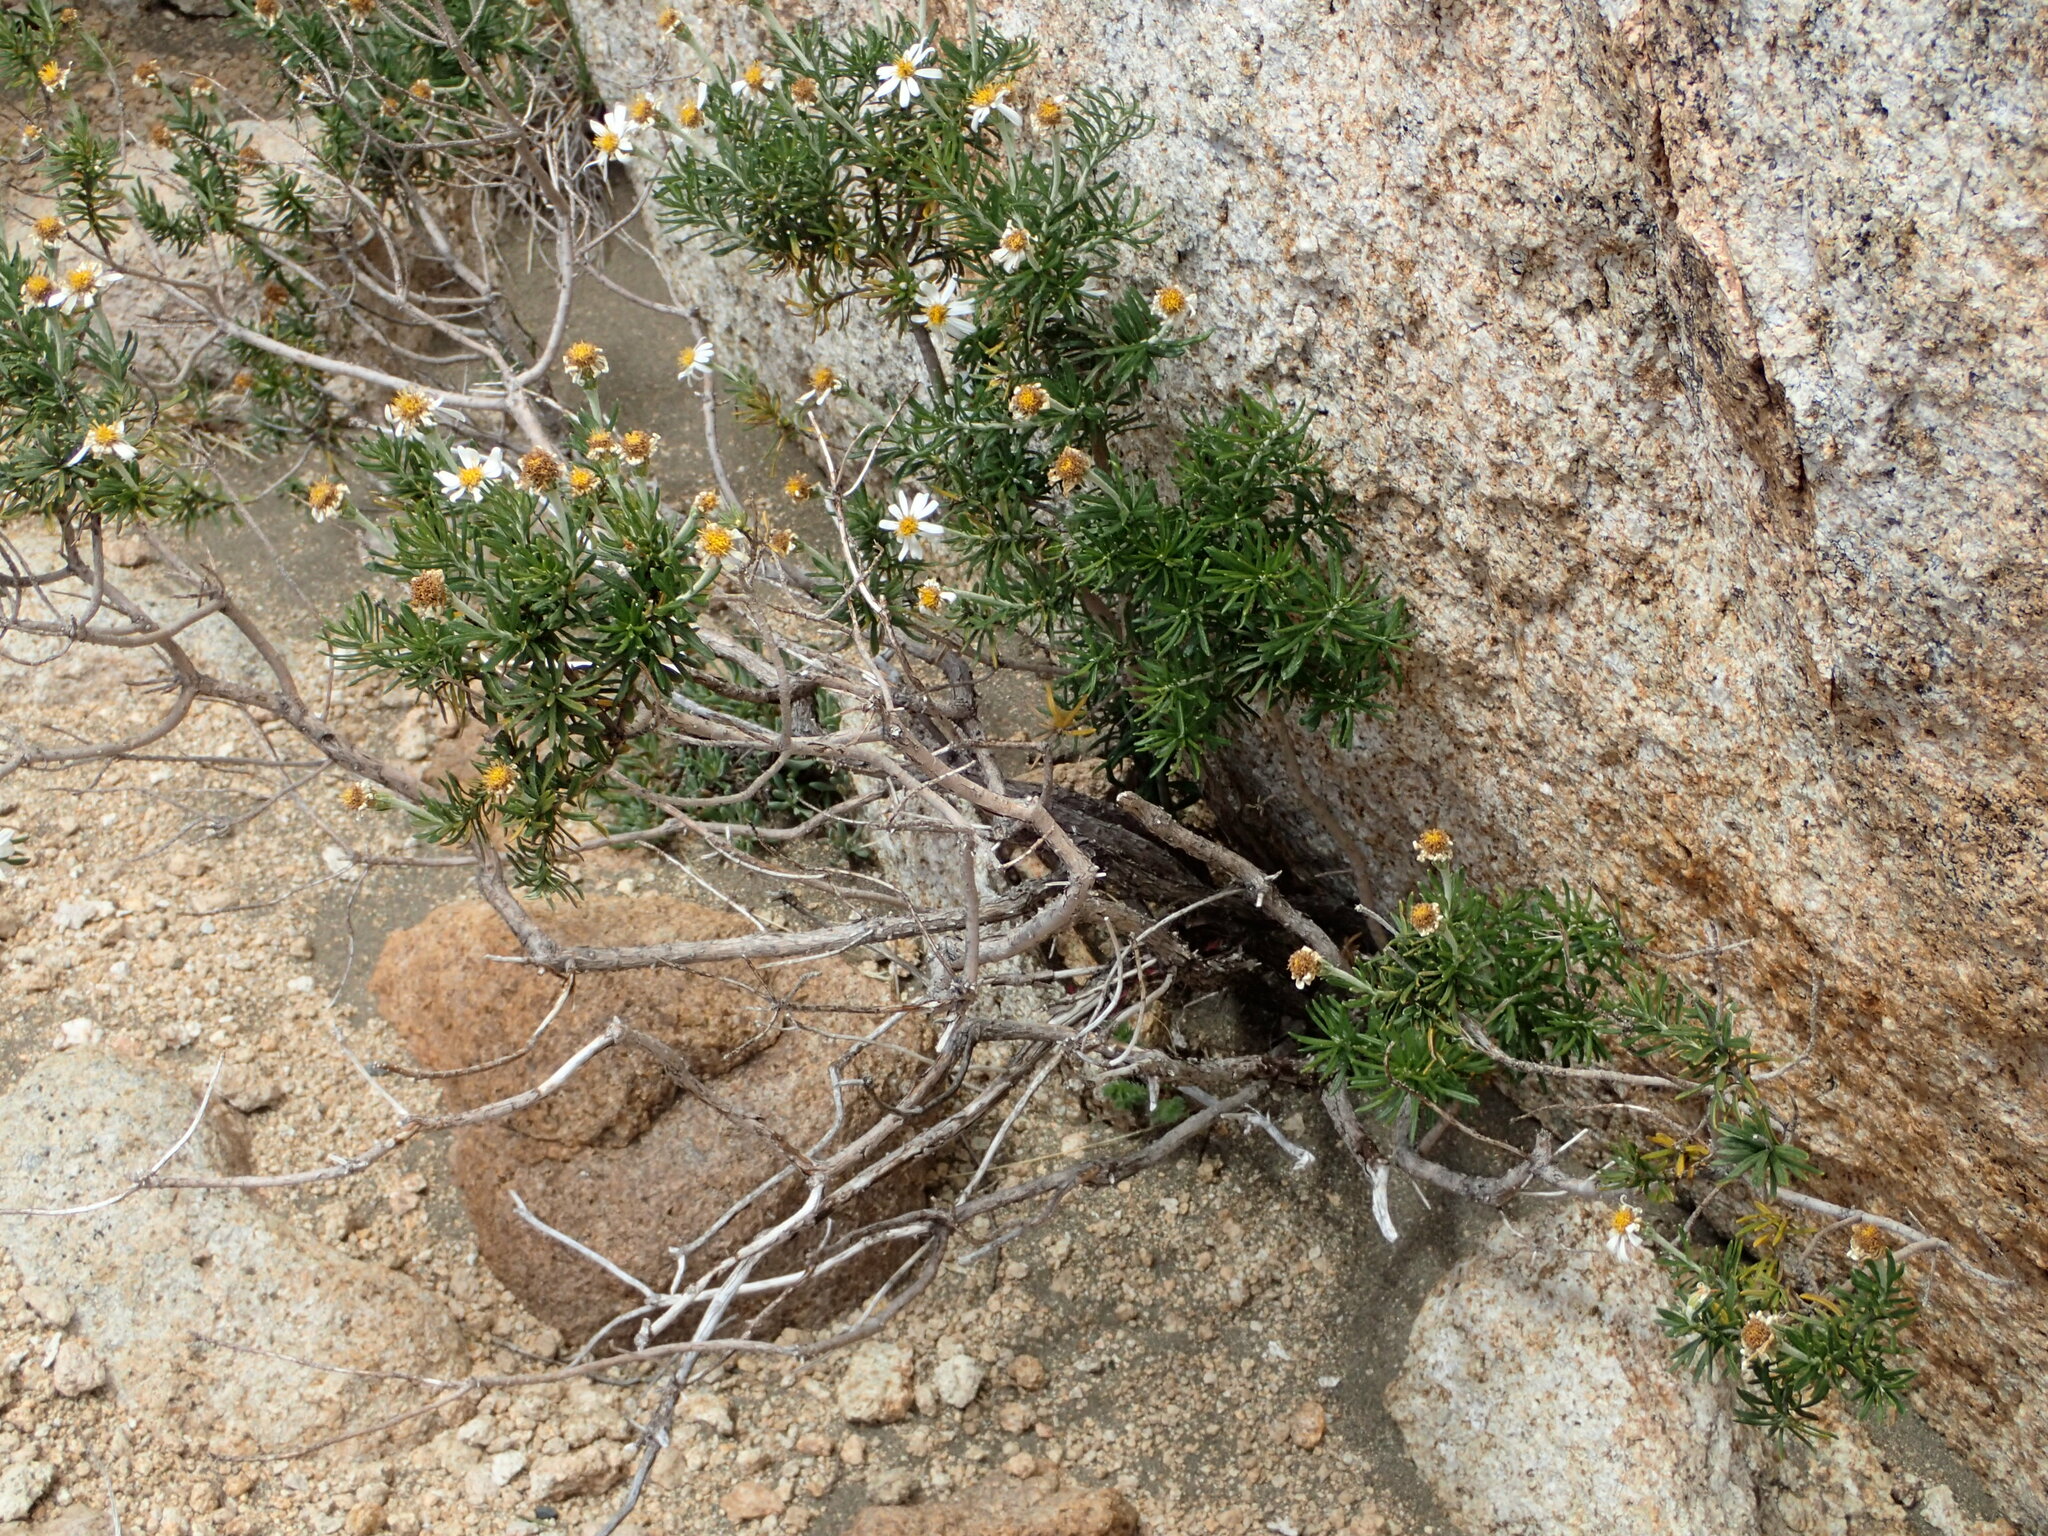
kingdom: Plantae
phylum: Tracheophyta
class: Magnoliopsida
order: Asterales
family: Asteraceae
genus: Chiliotrichum
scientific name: Chiliotrichum diffusum
